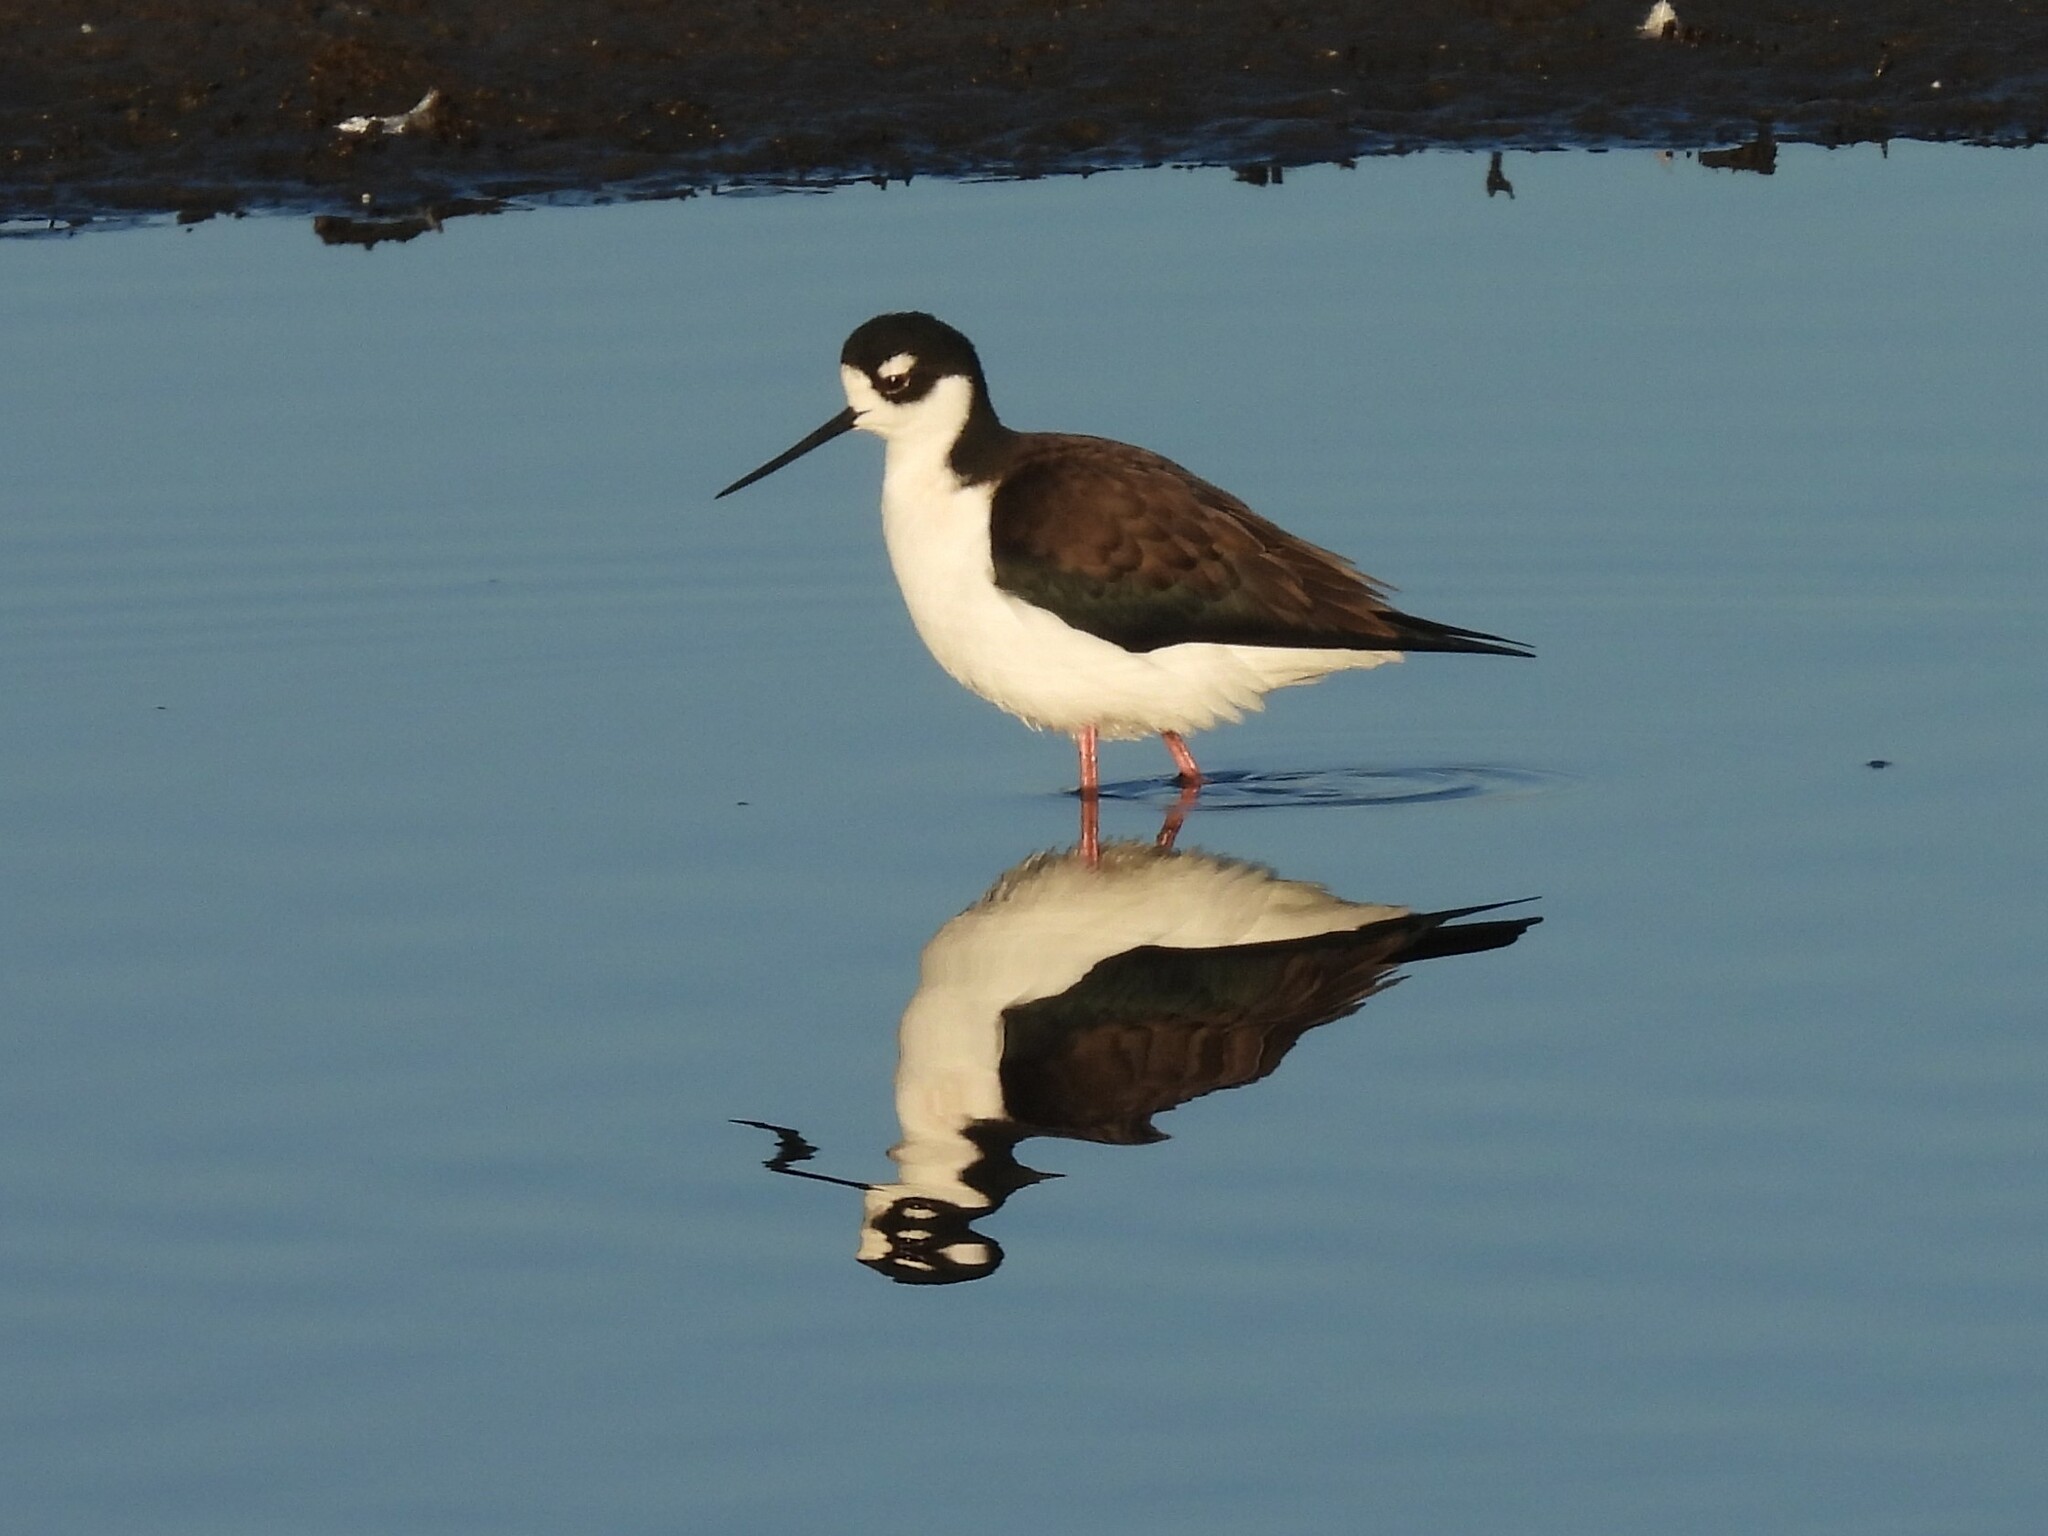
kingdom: Animalia
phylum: Chordata
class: Aves
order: Charadriiformes
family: Recurvirostridae
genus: Himantopus
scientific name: Himantopus mexicanus
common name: Black-necked stilt
